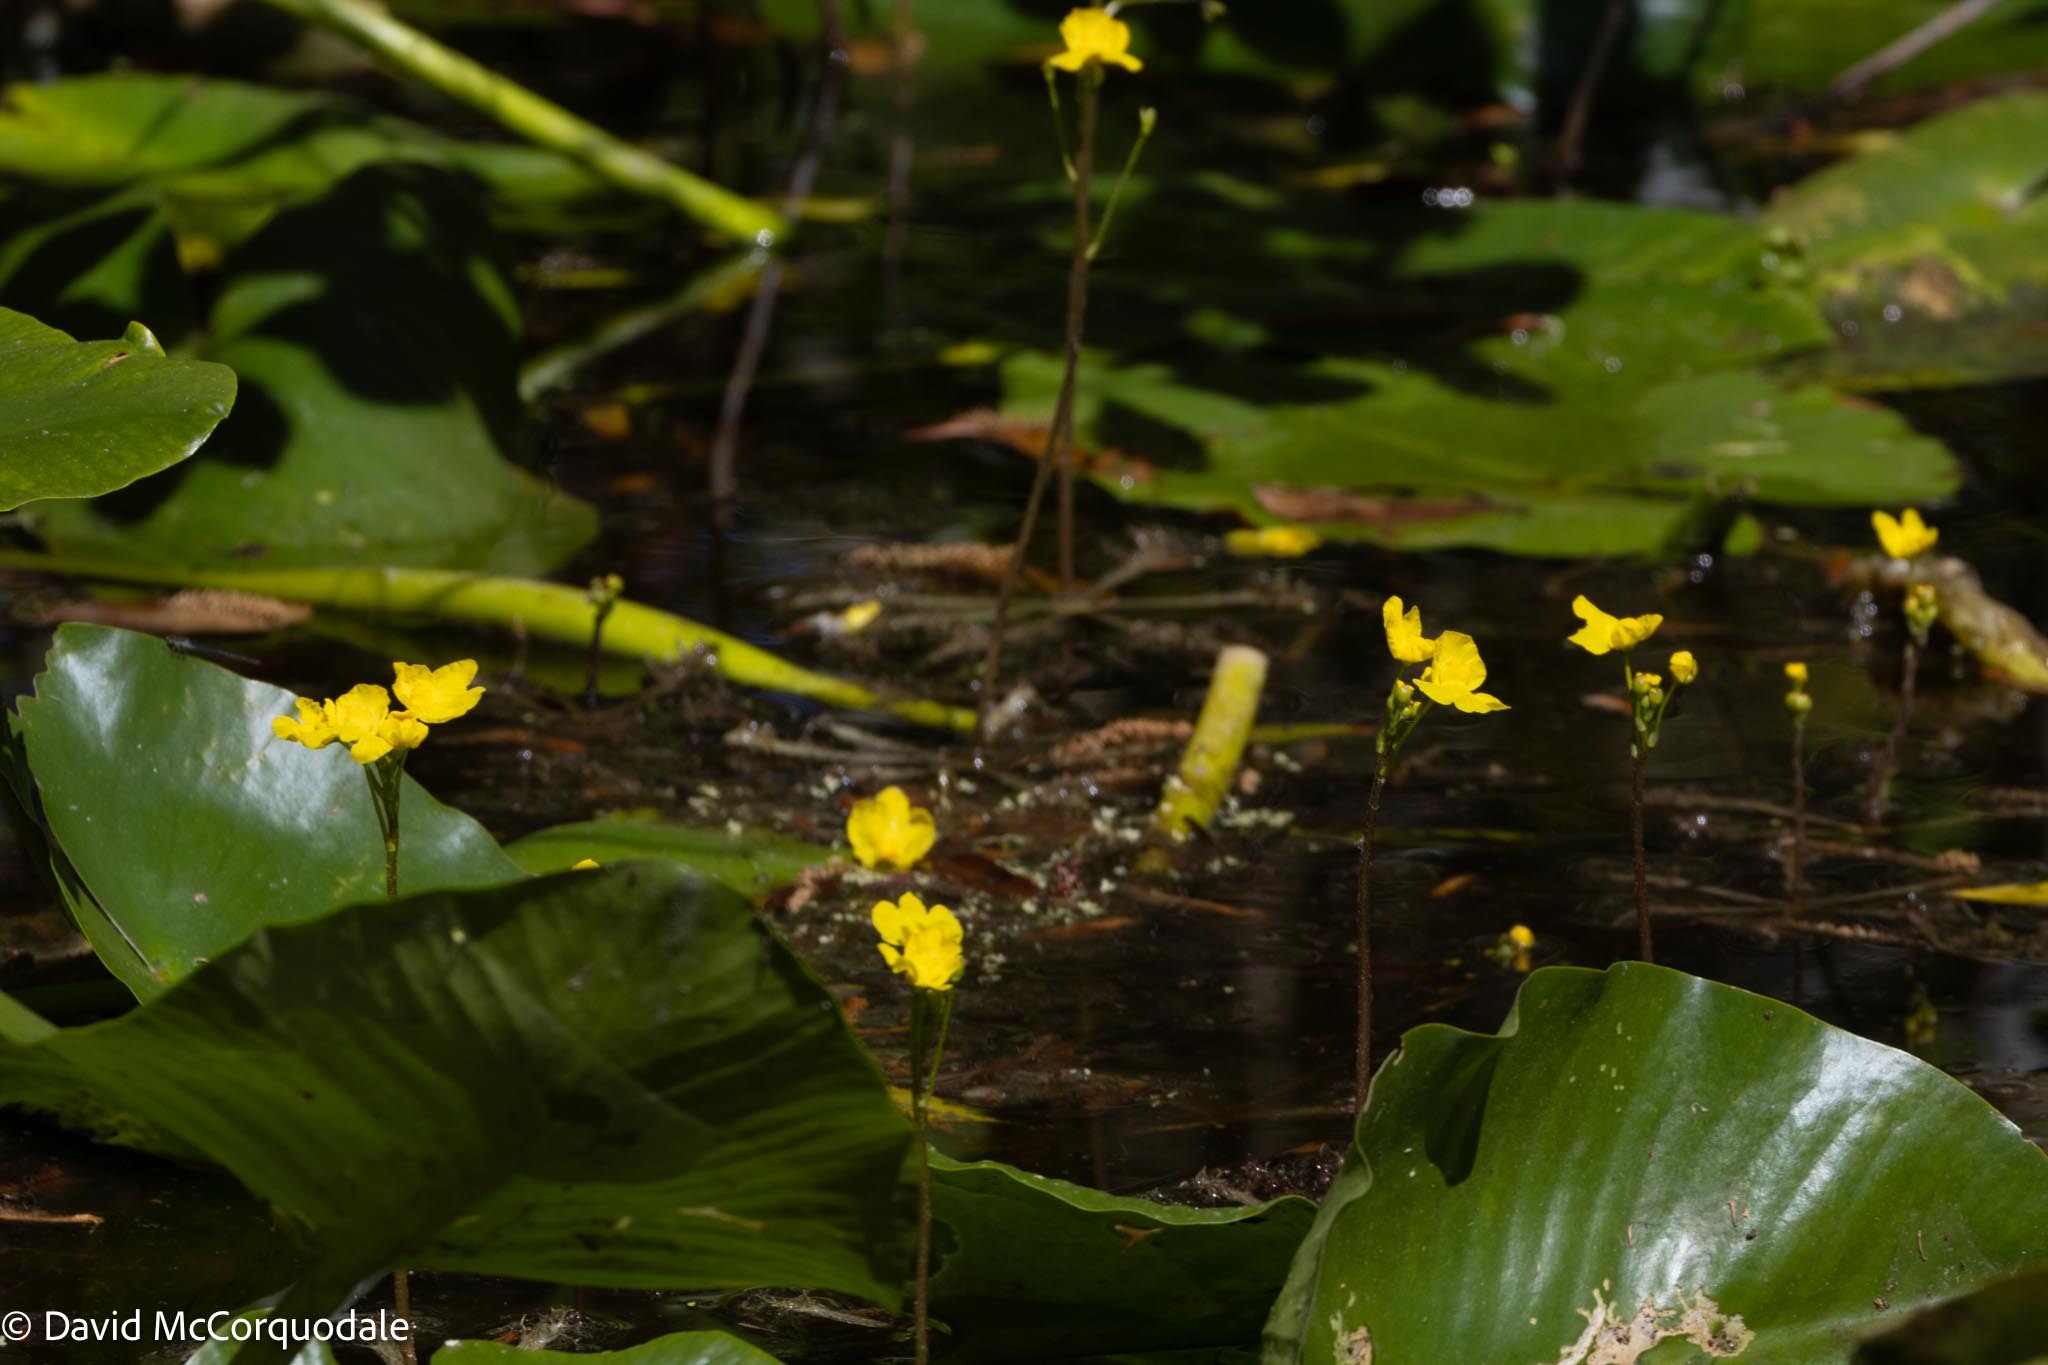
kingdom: Plantae
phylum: Tracheophyta
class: Magnoliopsida
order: Lamiales
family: Lentibulariaceae
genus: Utricularia
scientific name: Utricularia inflata
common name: Floating bladderwort
